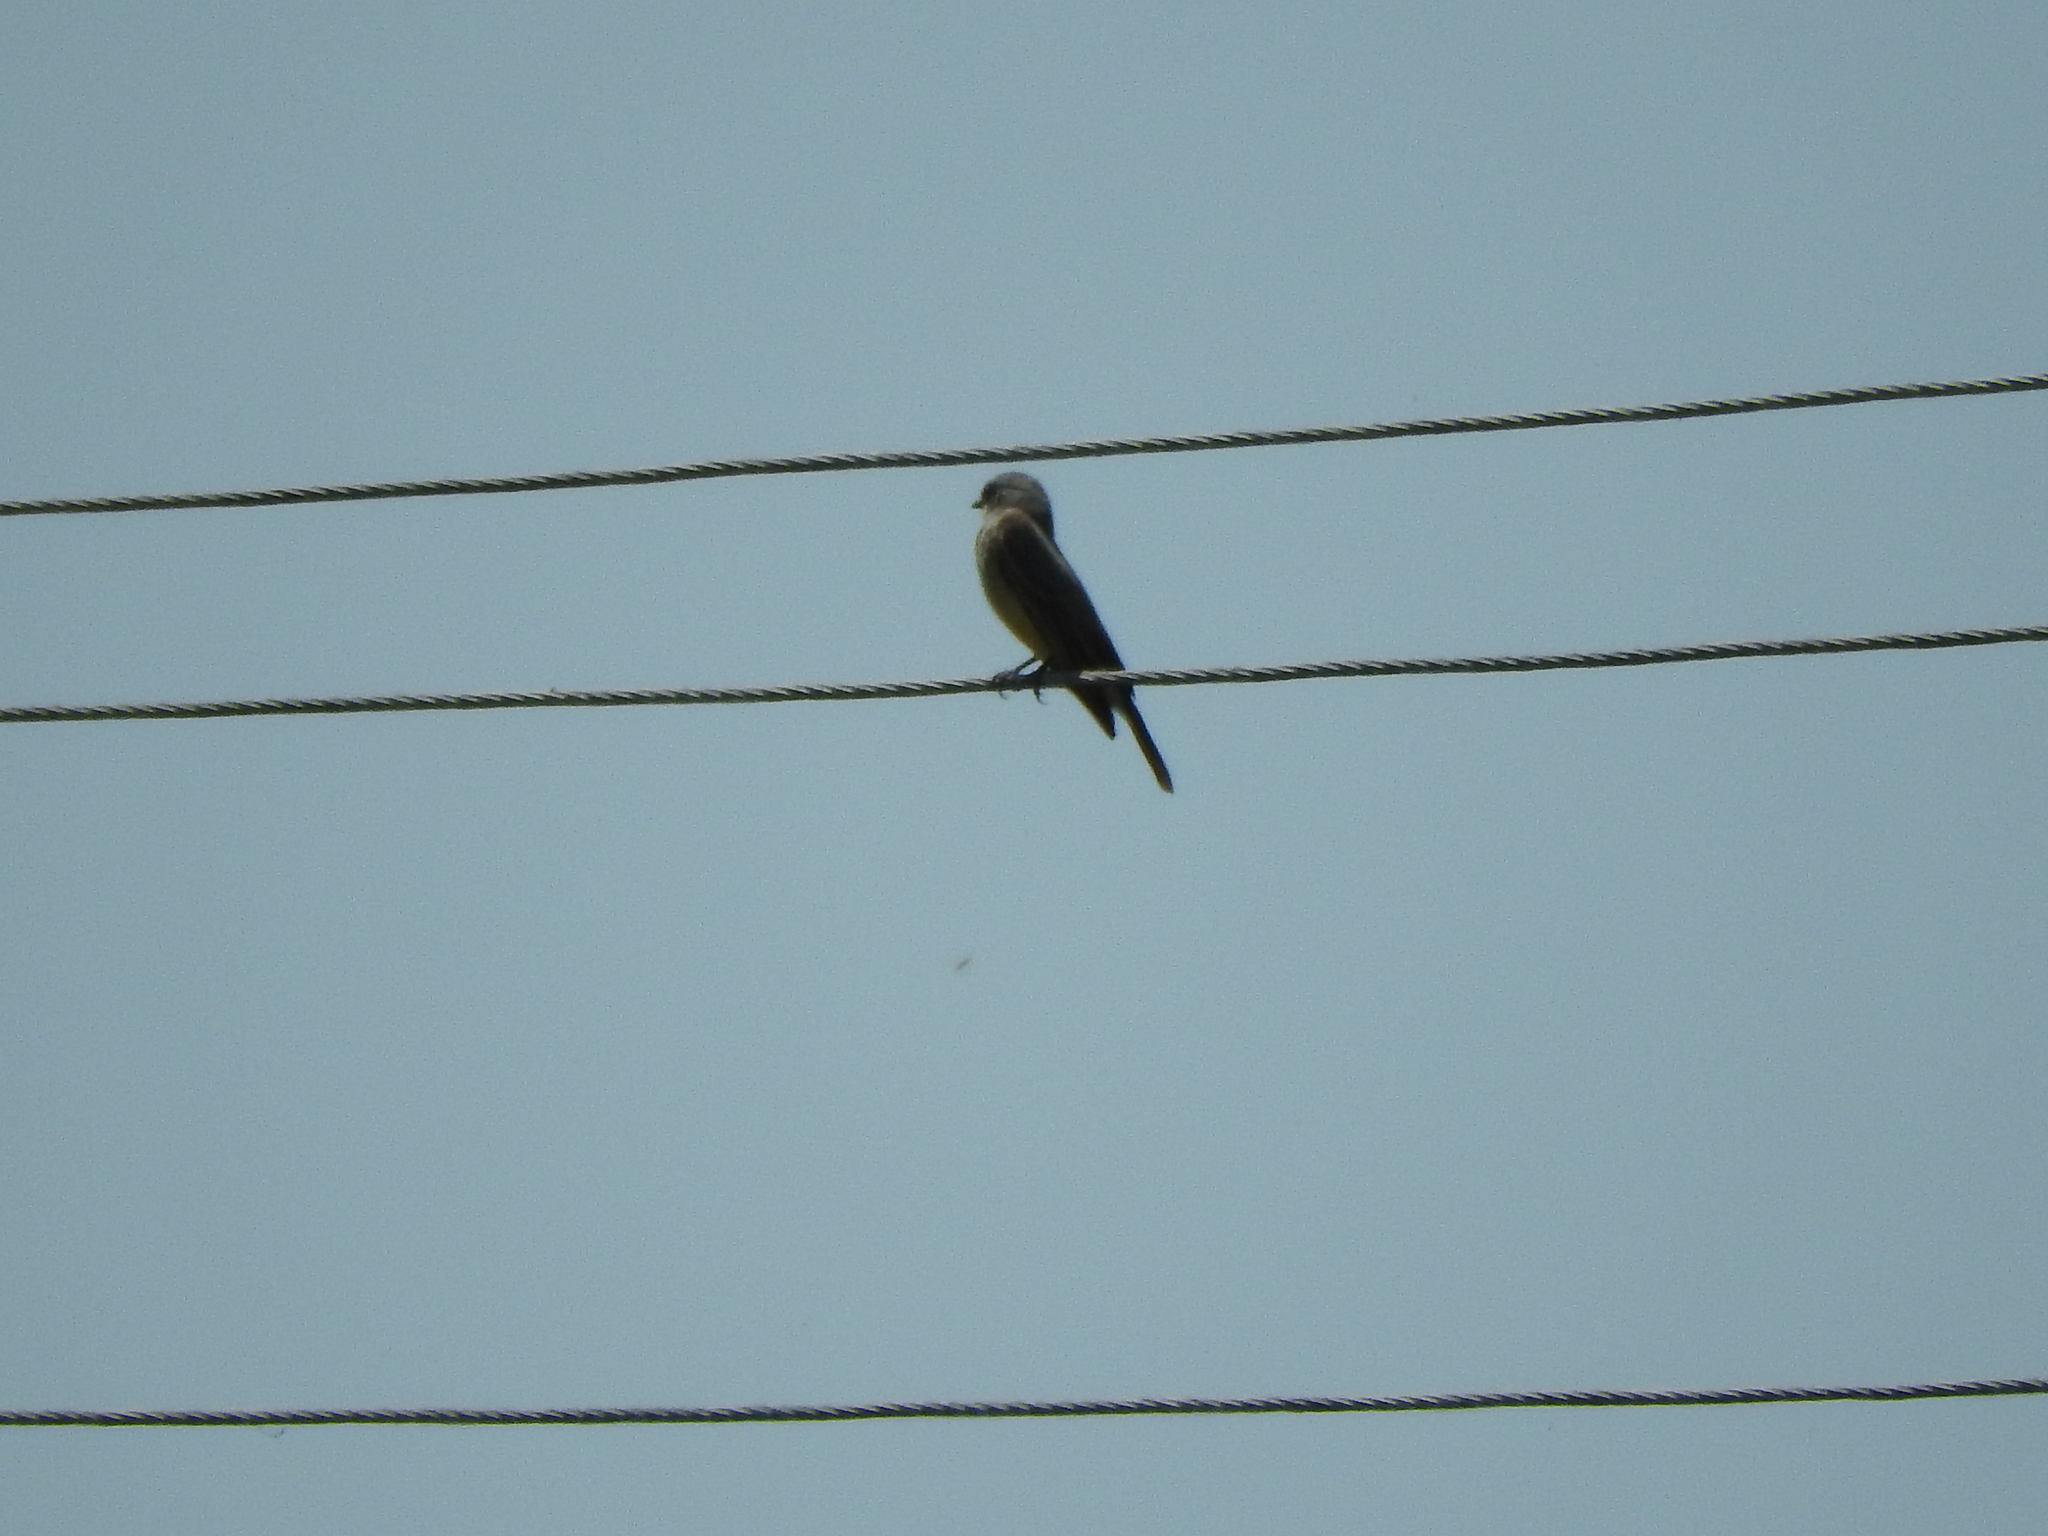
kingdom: Animalia
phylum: Chordata
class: Aves
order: Passeriformes
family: Tyrannidae
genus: Tyrannus
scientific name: Tyrannus vociferans
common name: Cassin's kingbird
